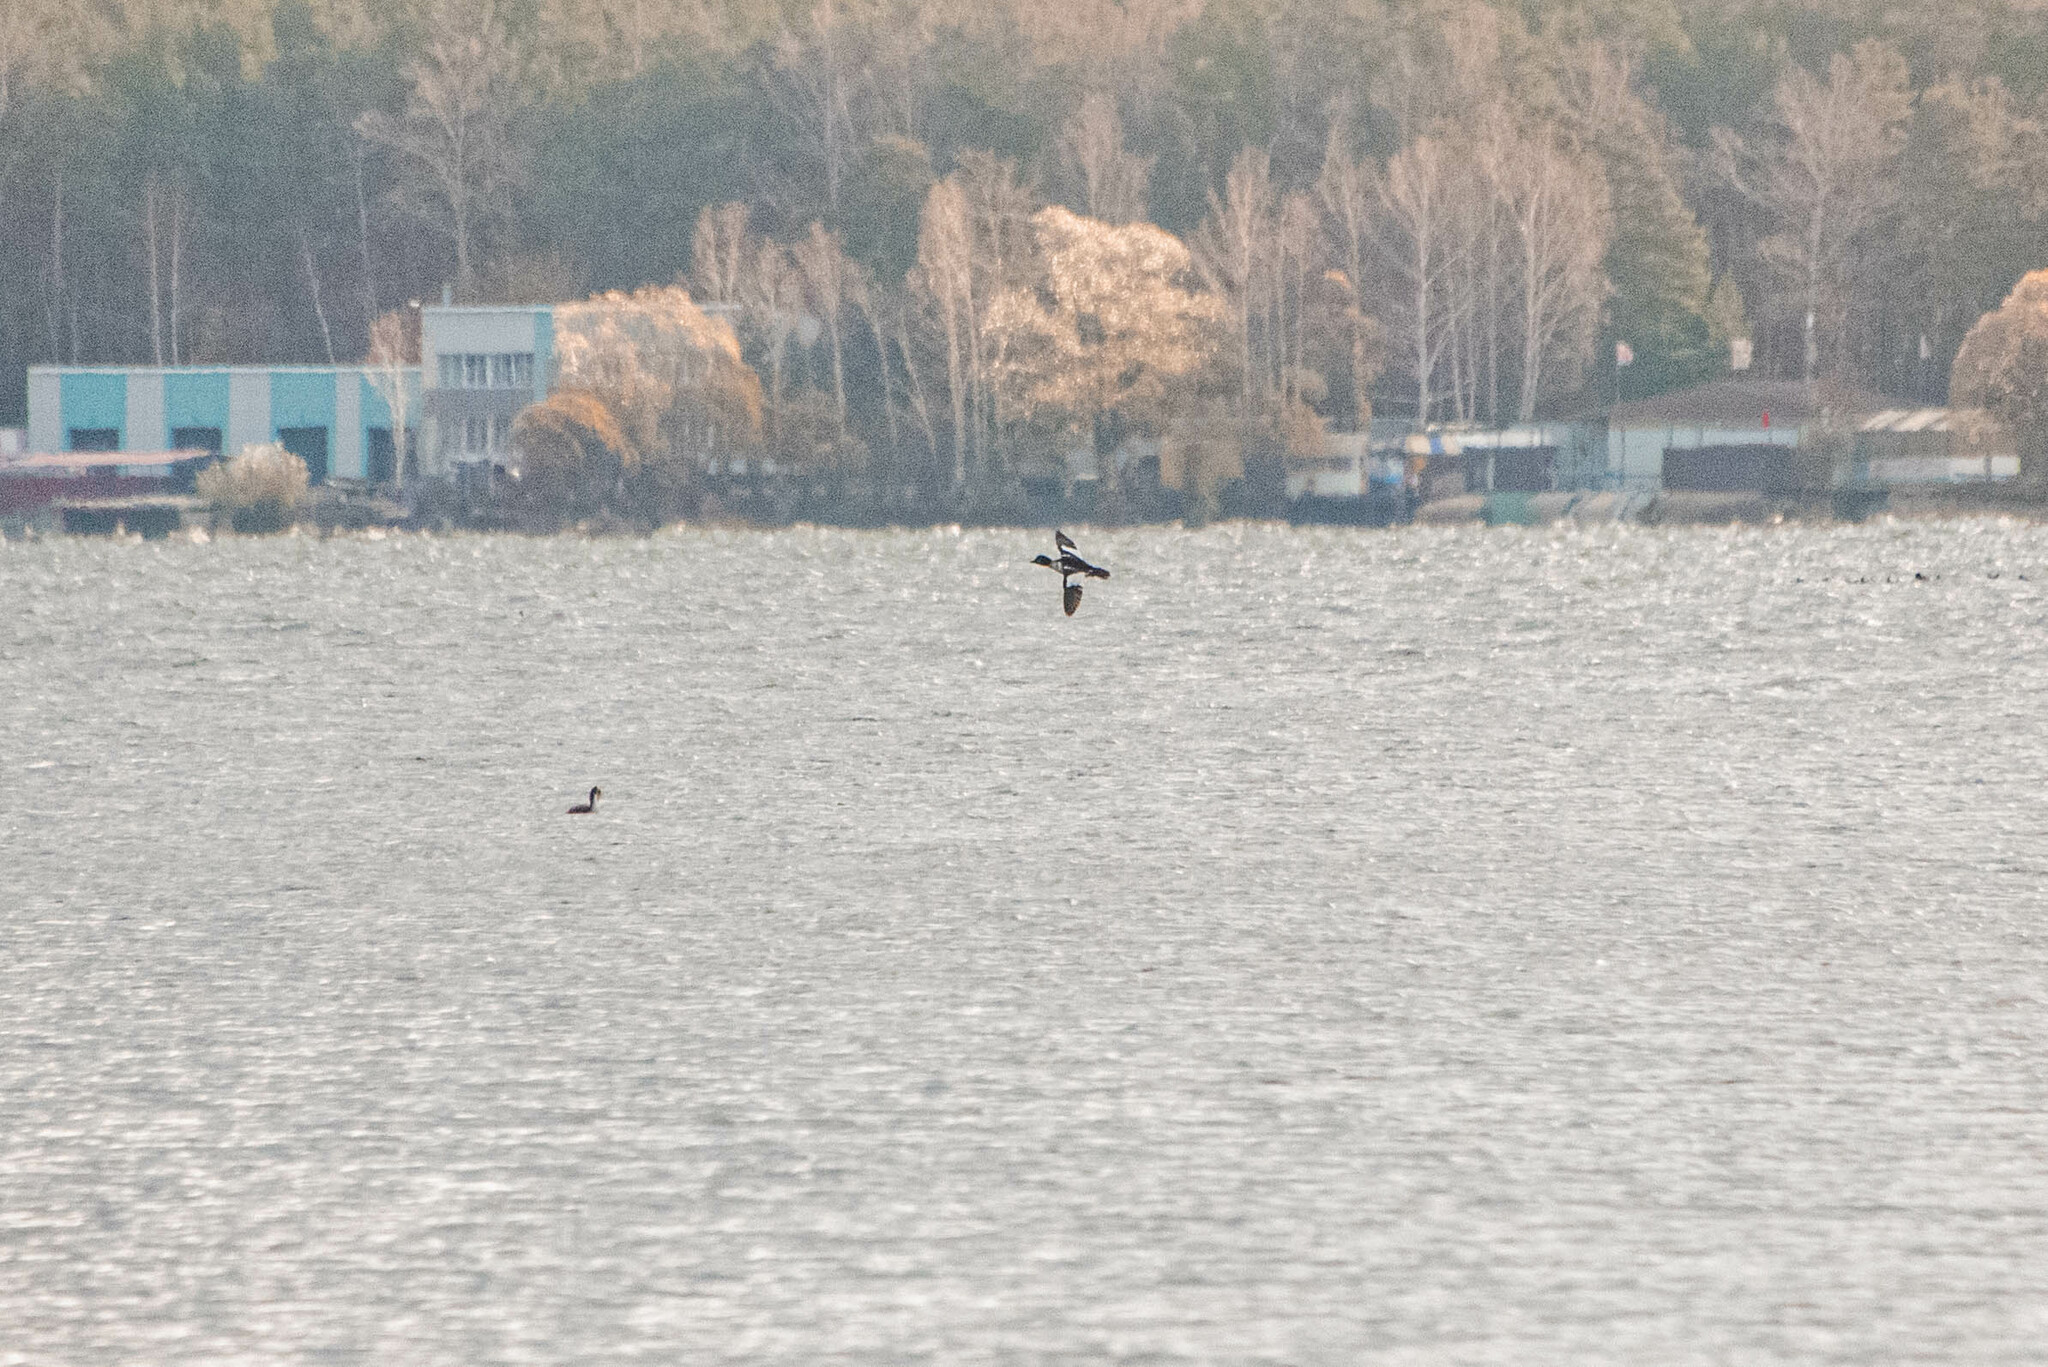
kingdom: Animalia
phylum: Chordata
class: Aves
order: Anseriformes
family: Anatidae
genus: Bucephala
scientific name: Bucephala clangula
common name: Common goldeneye
